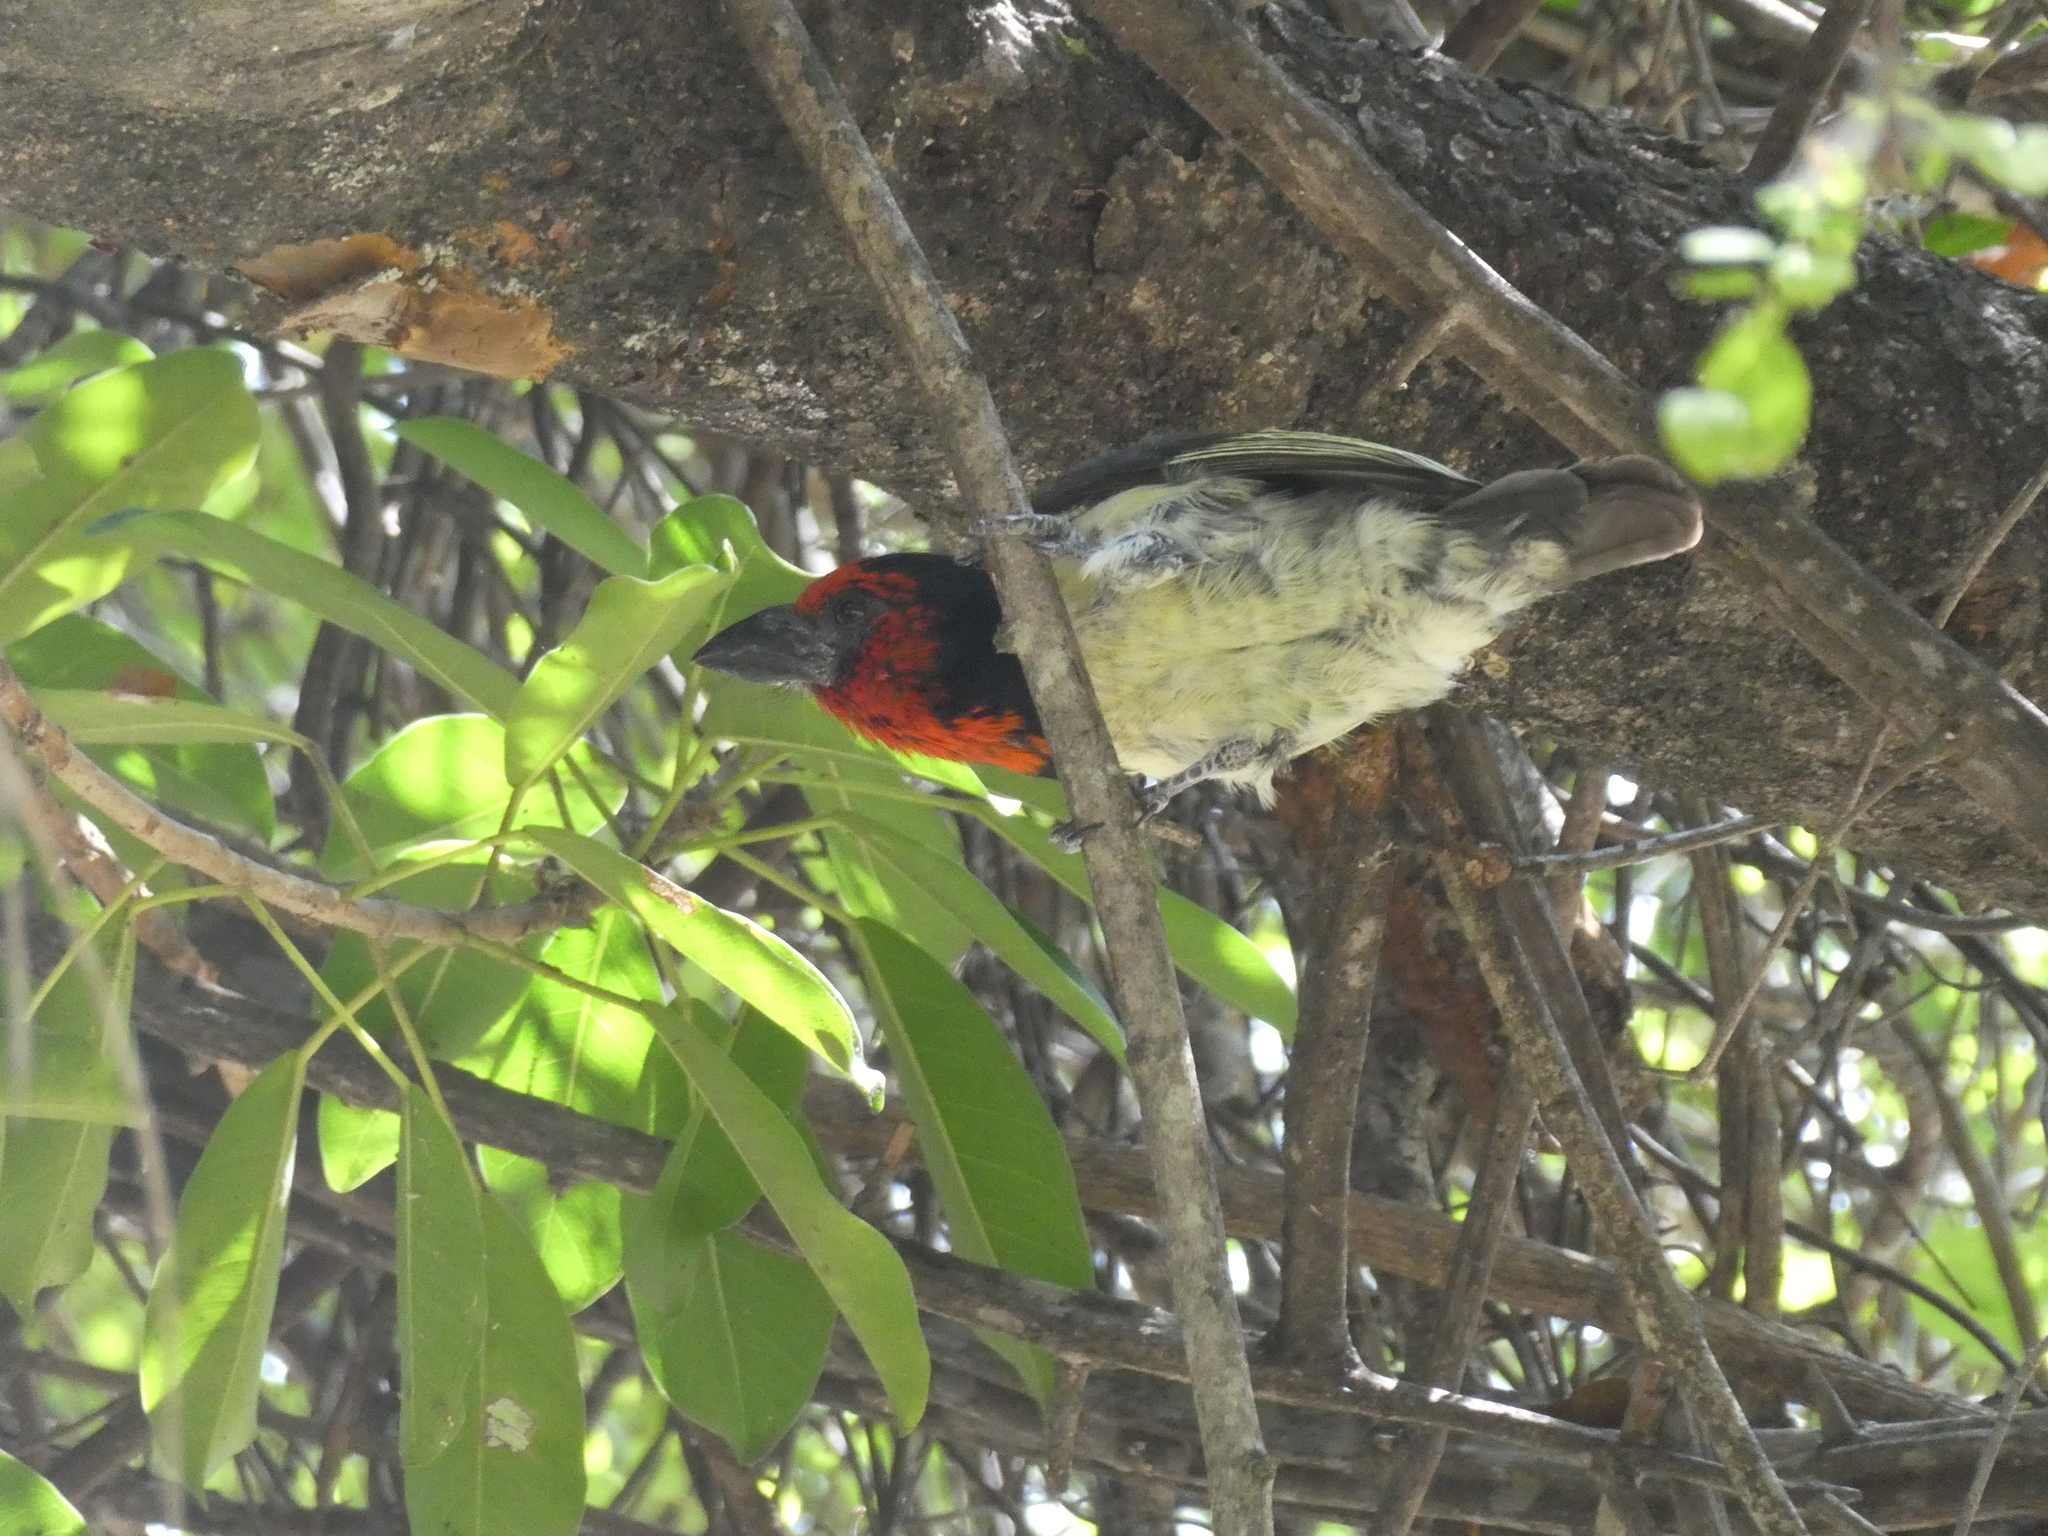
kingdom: Animalia
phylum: Chordata
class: Aves
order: Piciformes
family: Lybiidae
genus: Lybius
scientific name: Lybius torquatus
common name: Black-collared barbet
